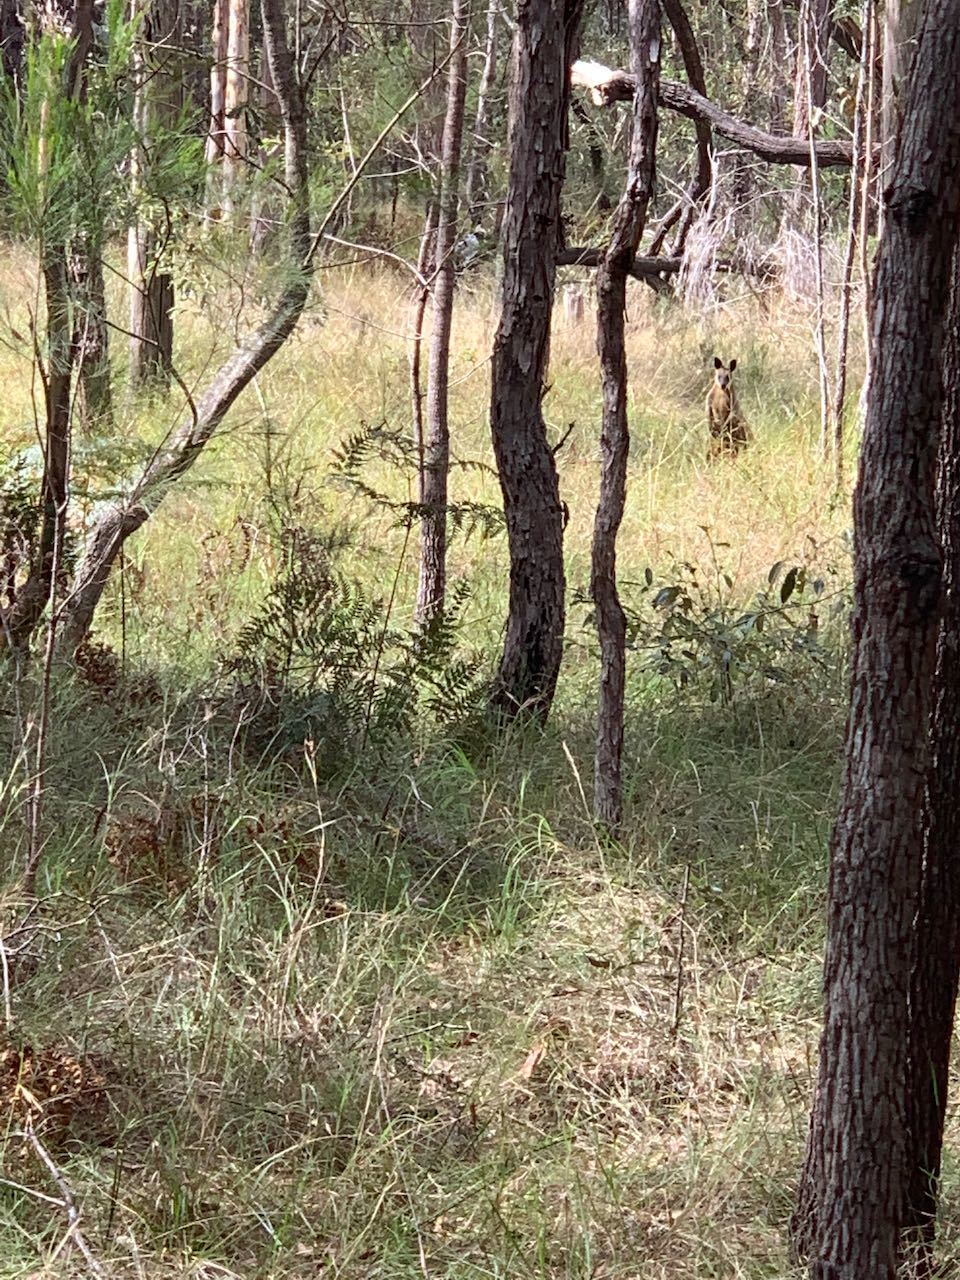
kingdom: Animalia
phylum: Chordata
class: Mammalia
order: Diprotodontia
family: Macropodidae
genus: Wallabia
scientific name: Wallabia bicolor
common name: Swamp wallaby
